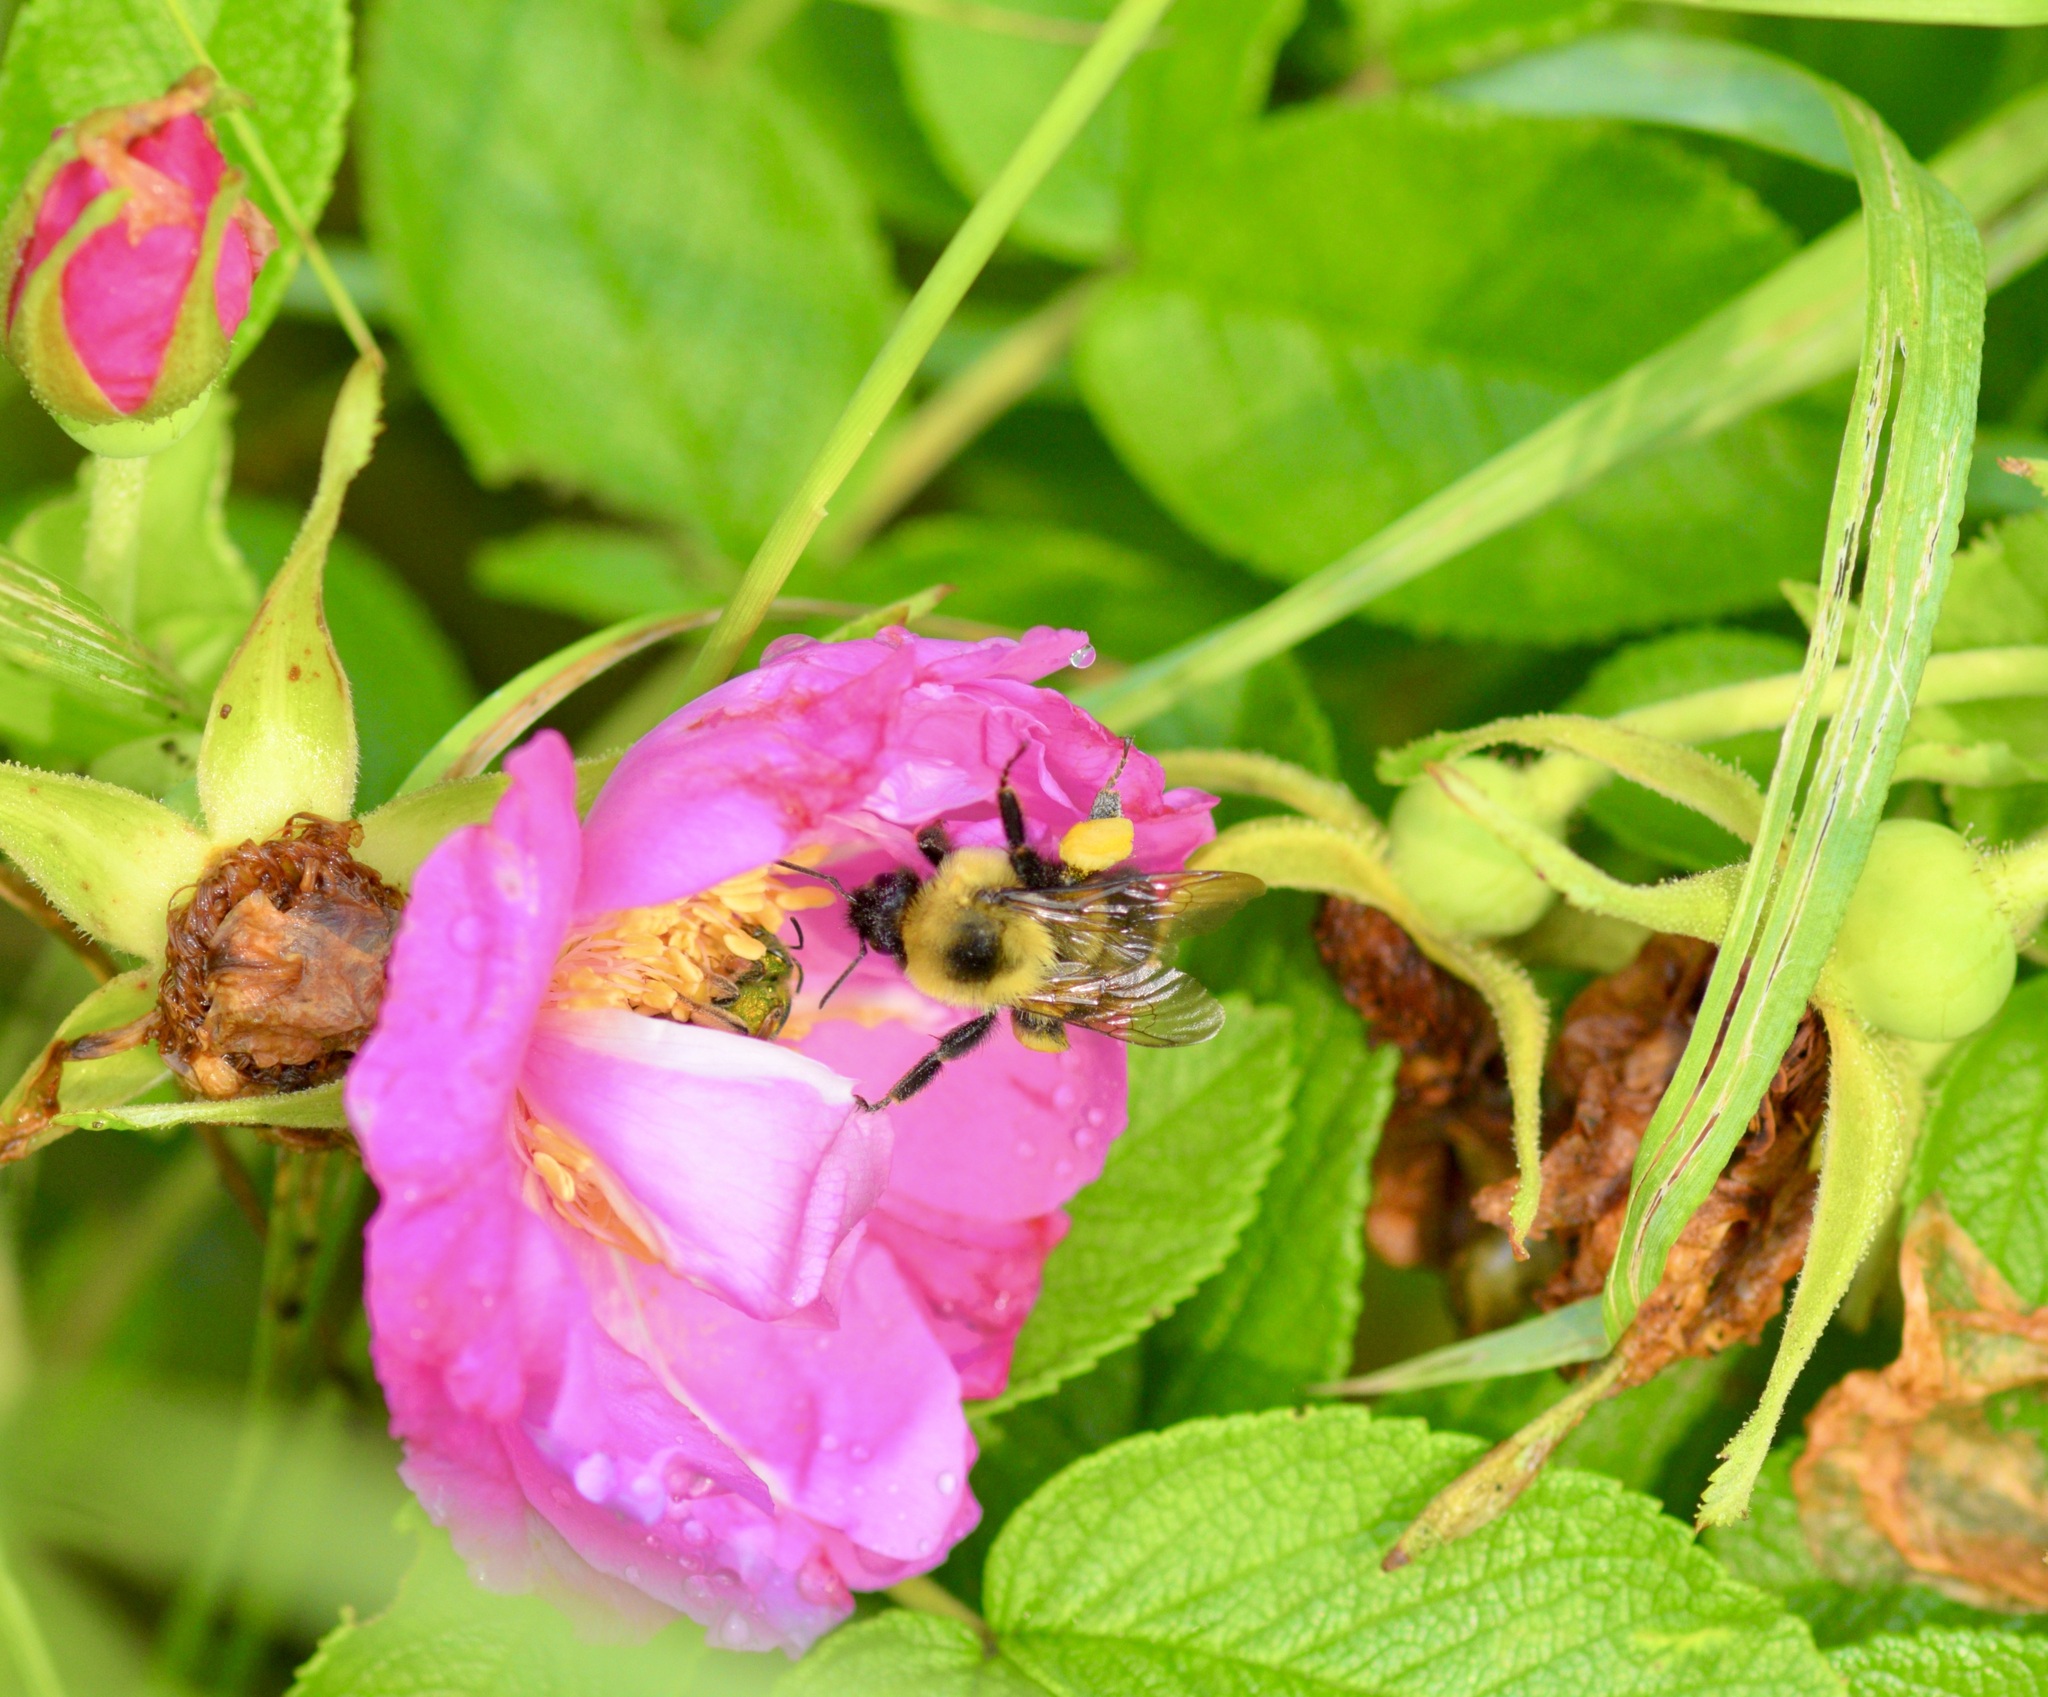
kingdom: Animalia
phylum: Arthropoda
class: Insecta
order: Hymenoptera
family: Apidae
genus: Bombus
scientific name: Bombus bimaculatus
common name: Two-spotted bumble bee
